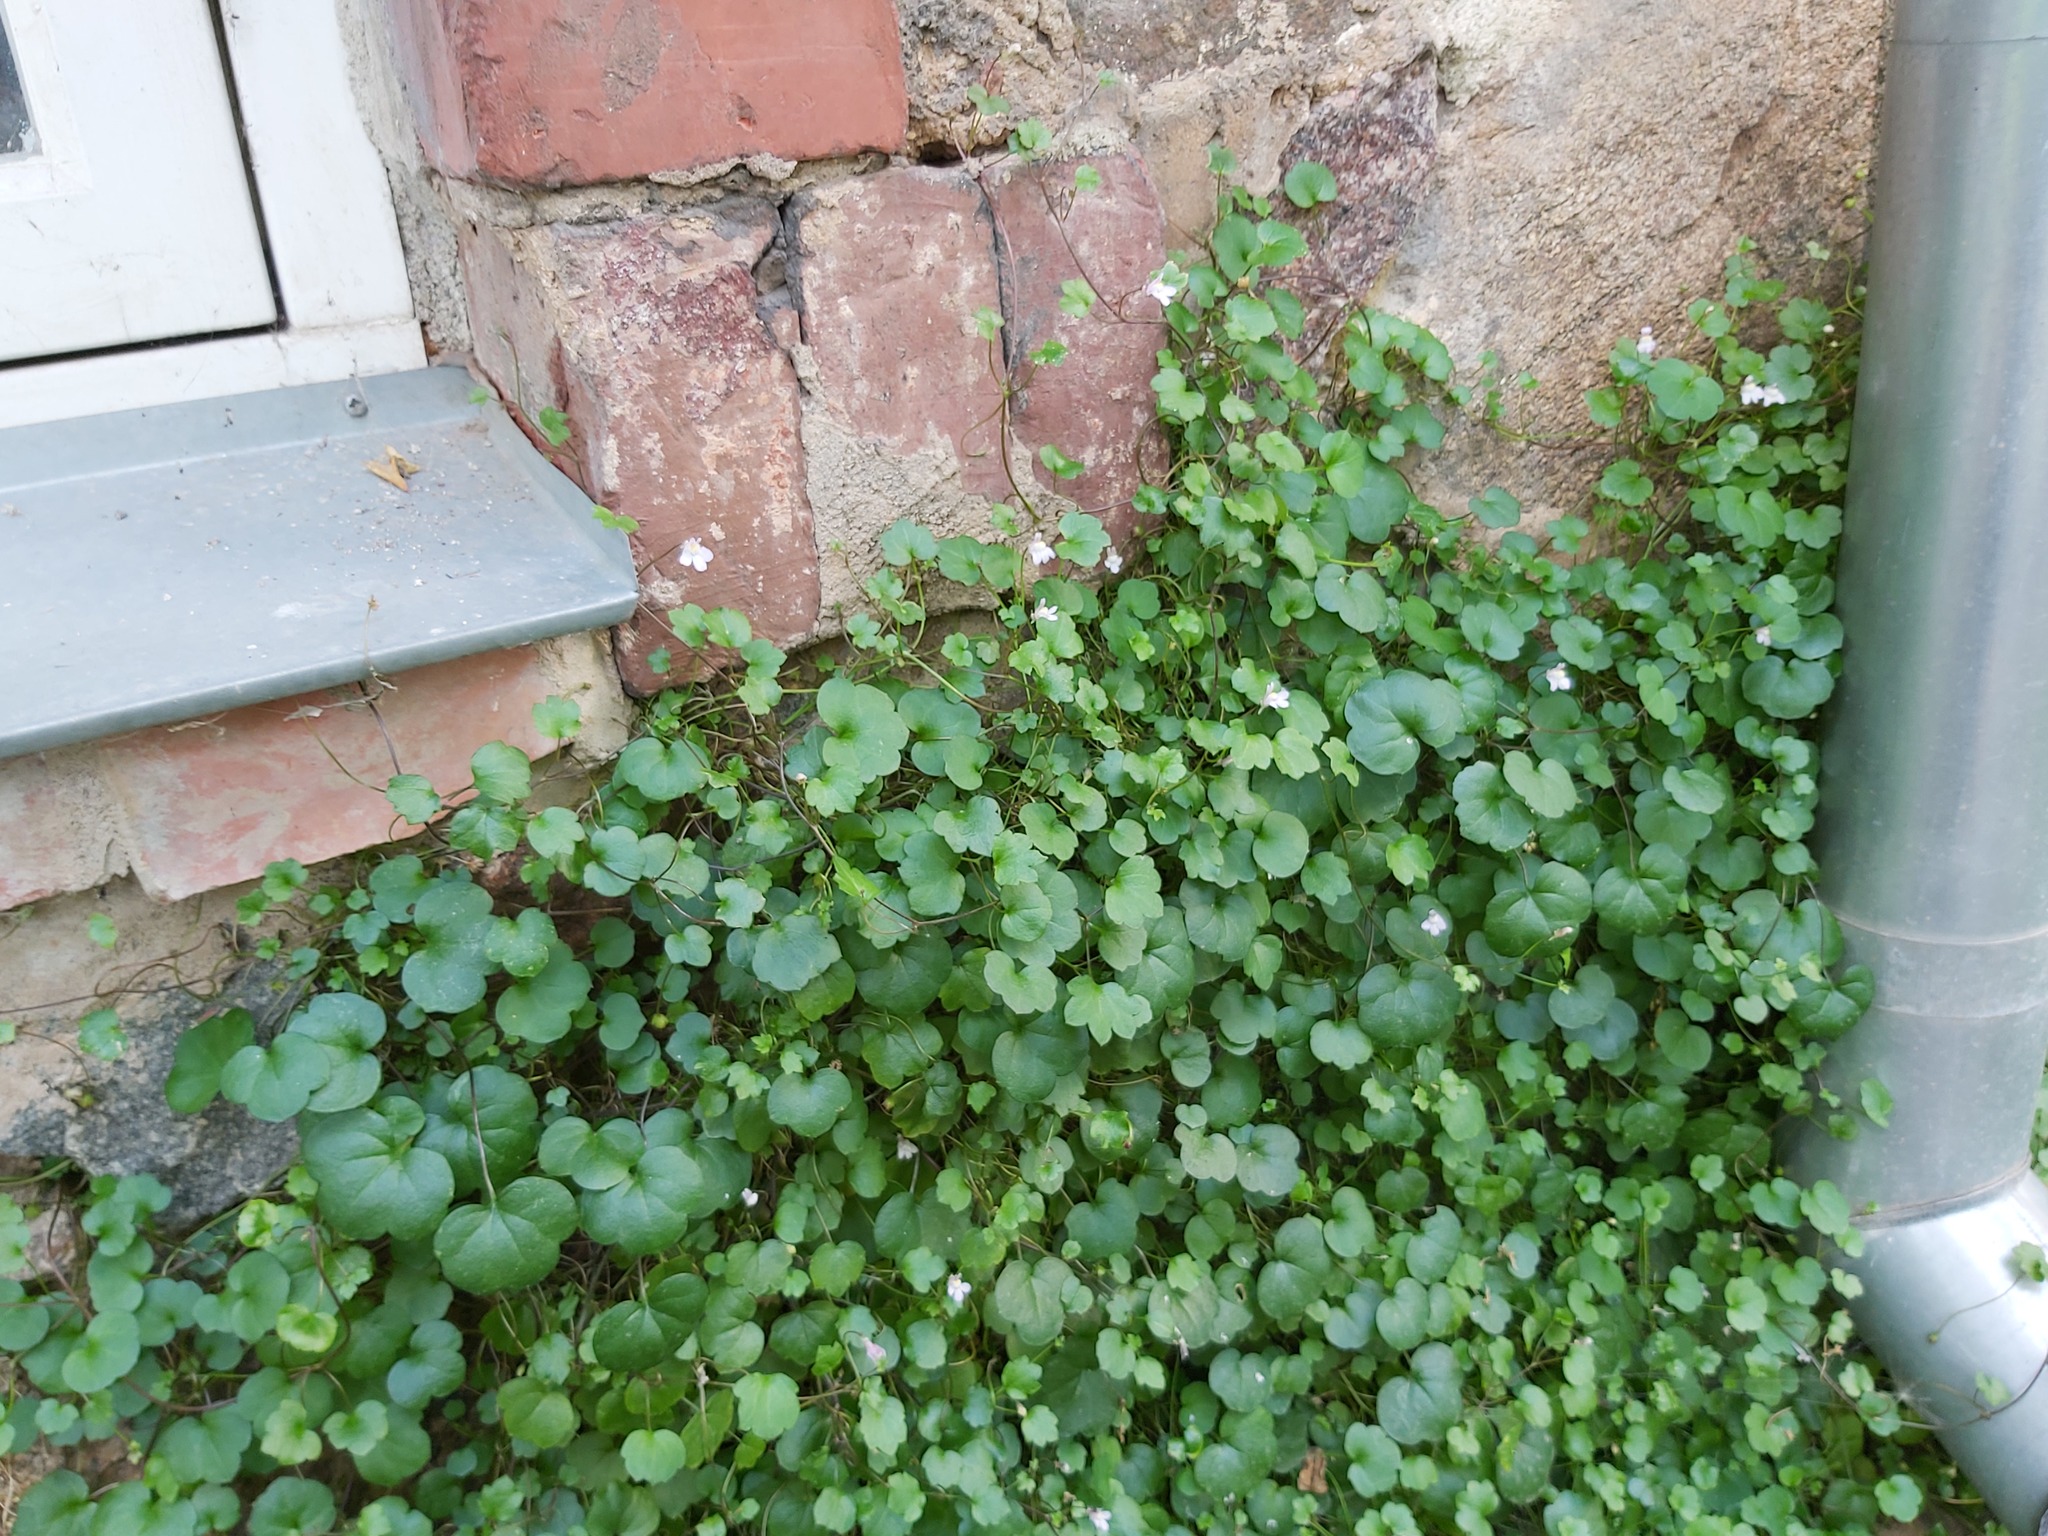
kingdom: Plantae
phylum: Tracheophyta
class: Magnoliopsida
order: Lamiales
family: Plantaginaceae
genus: Cymbalaria
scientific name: Cymbalaria muralis
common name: Ivy-leaved toadflax
